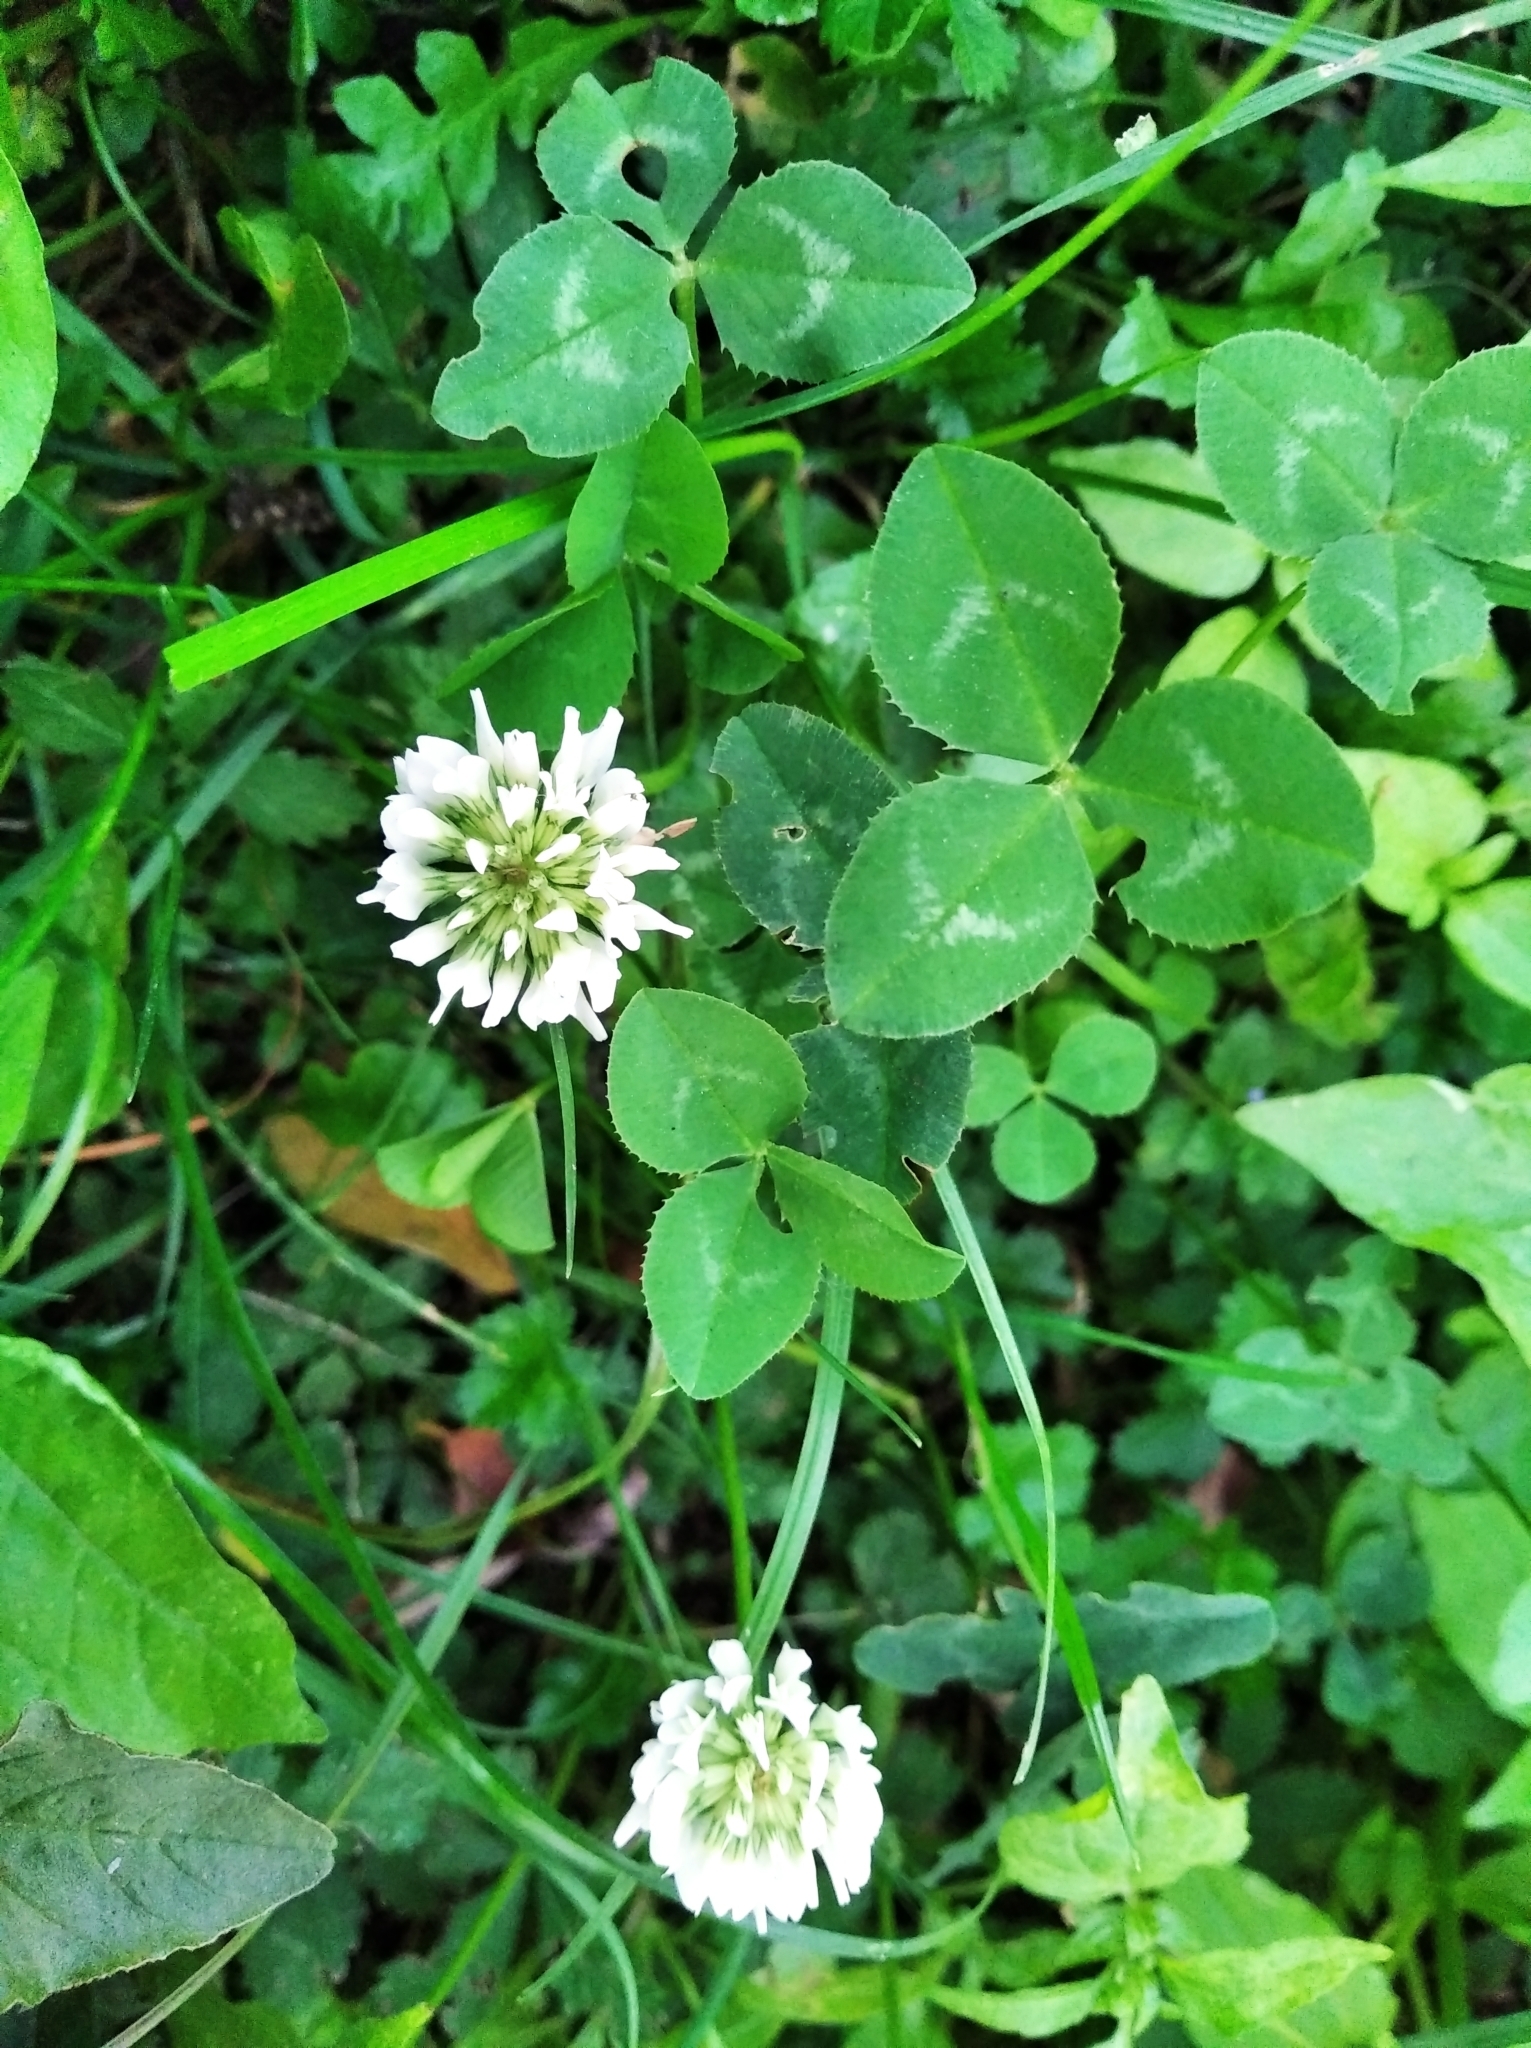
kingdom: Plantae
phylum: Tracheophyta
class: Magnoliopsida
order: Fabales
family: Fabaceae
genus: Trifolium
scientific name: Trifolium repens
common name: White clover
